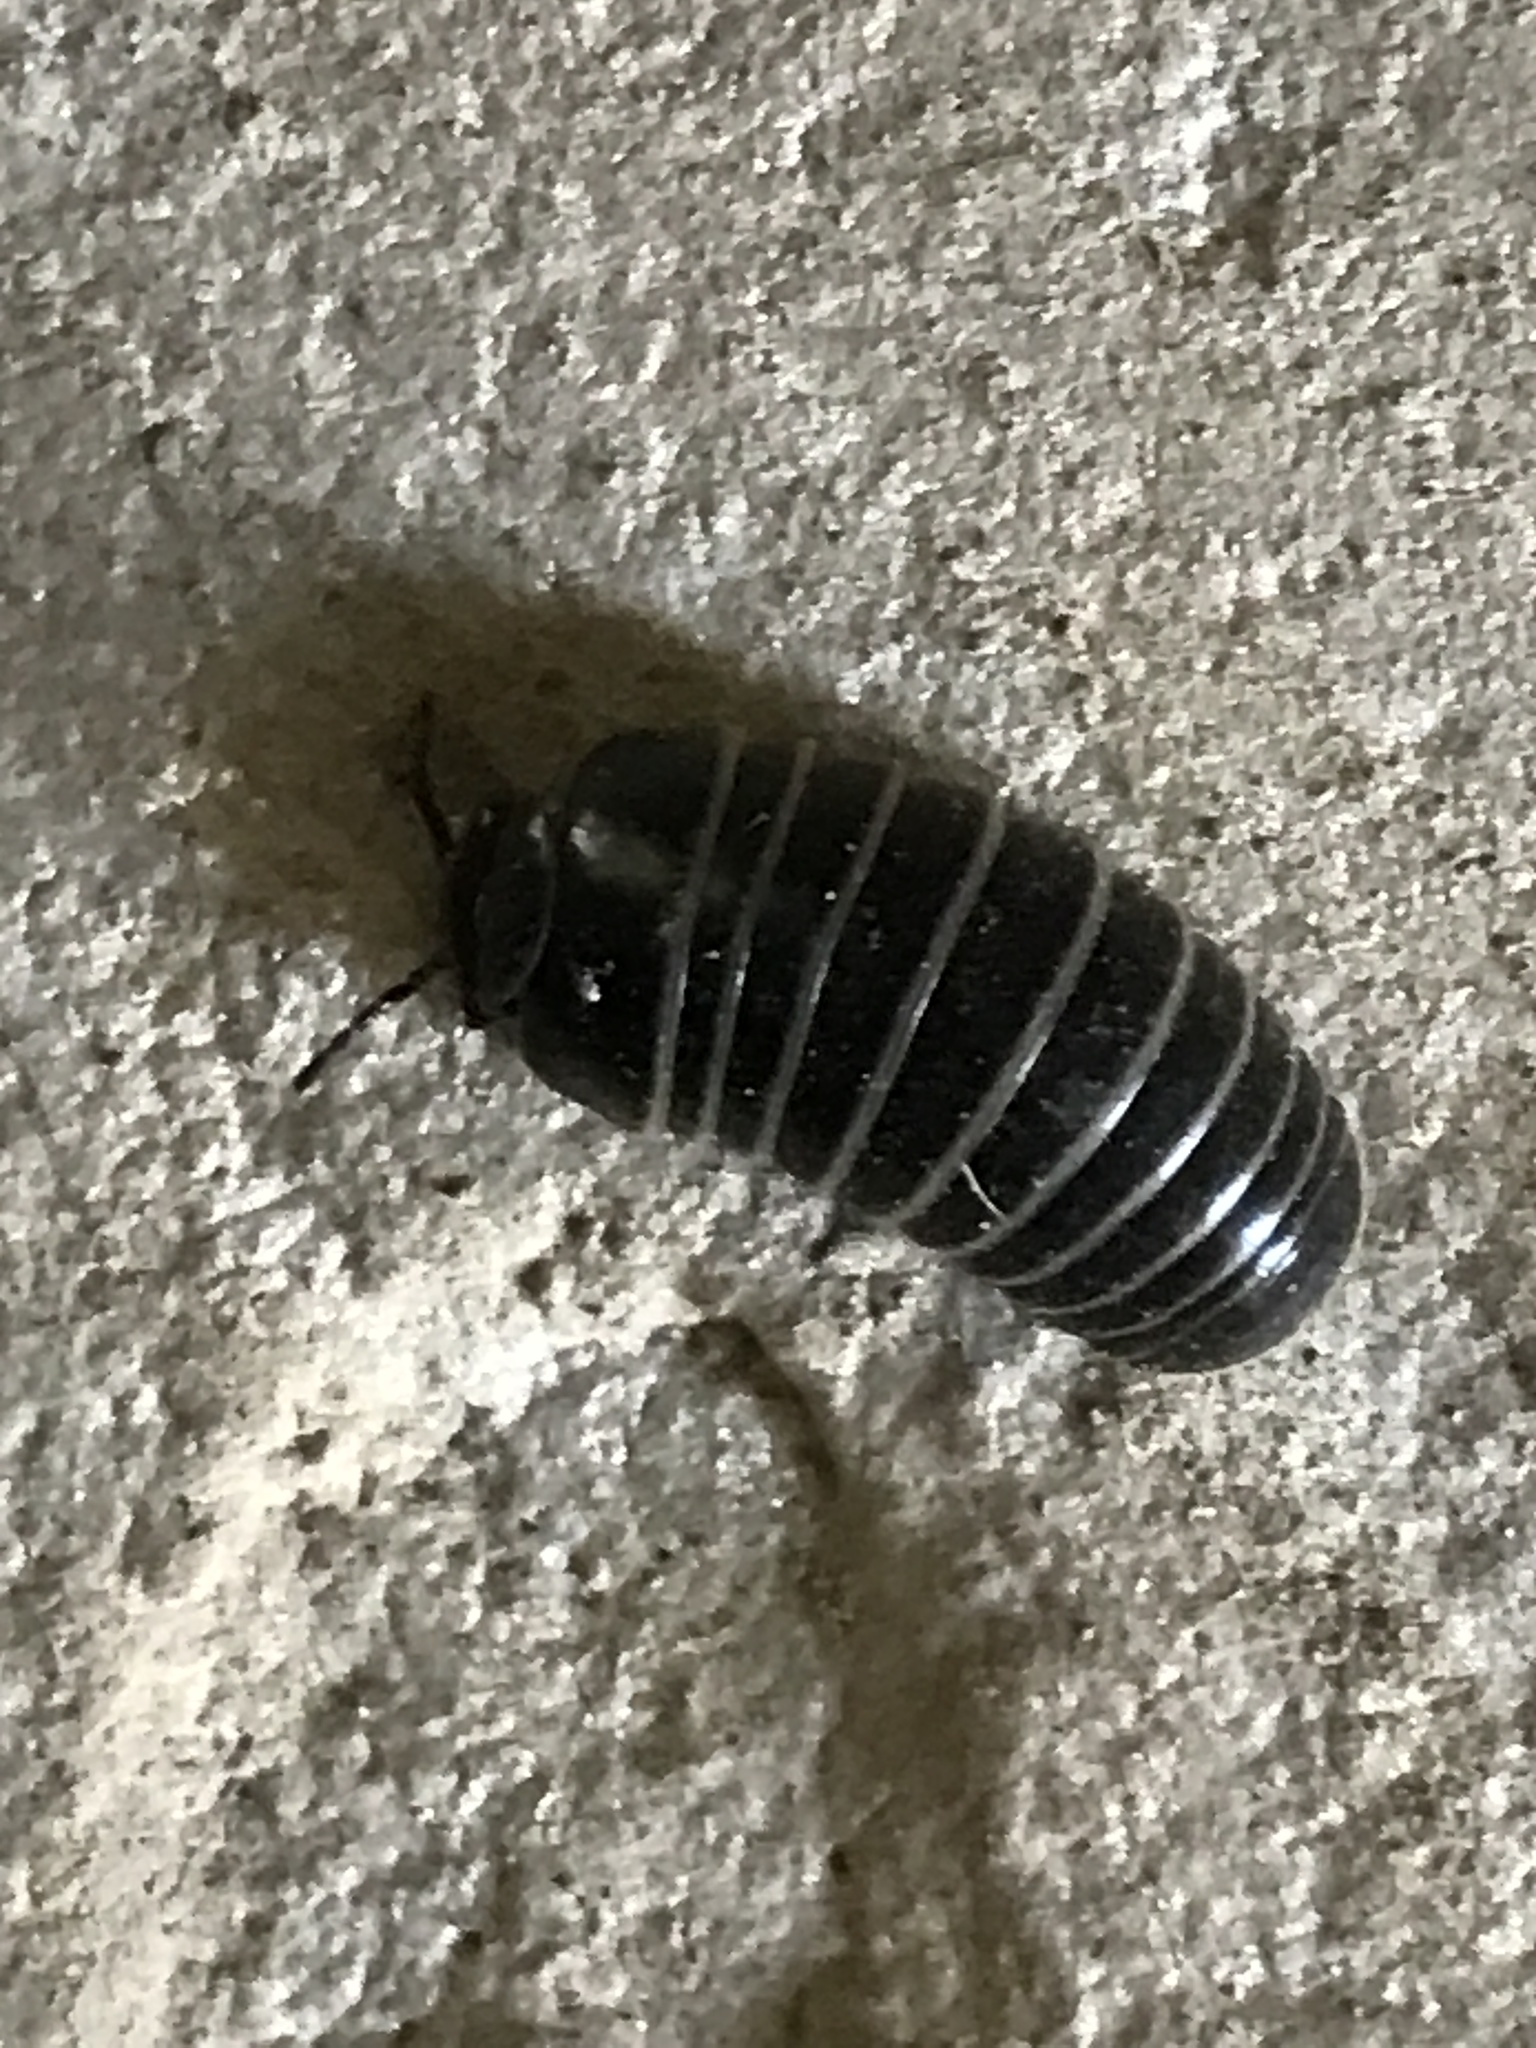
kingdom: Animalia
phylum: Arthropoda
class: Diplopoda
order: Glomerida
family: Glomeridae
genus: Glomeris
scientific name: Glomeris marginata
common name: Bordered pill millipede
